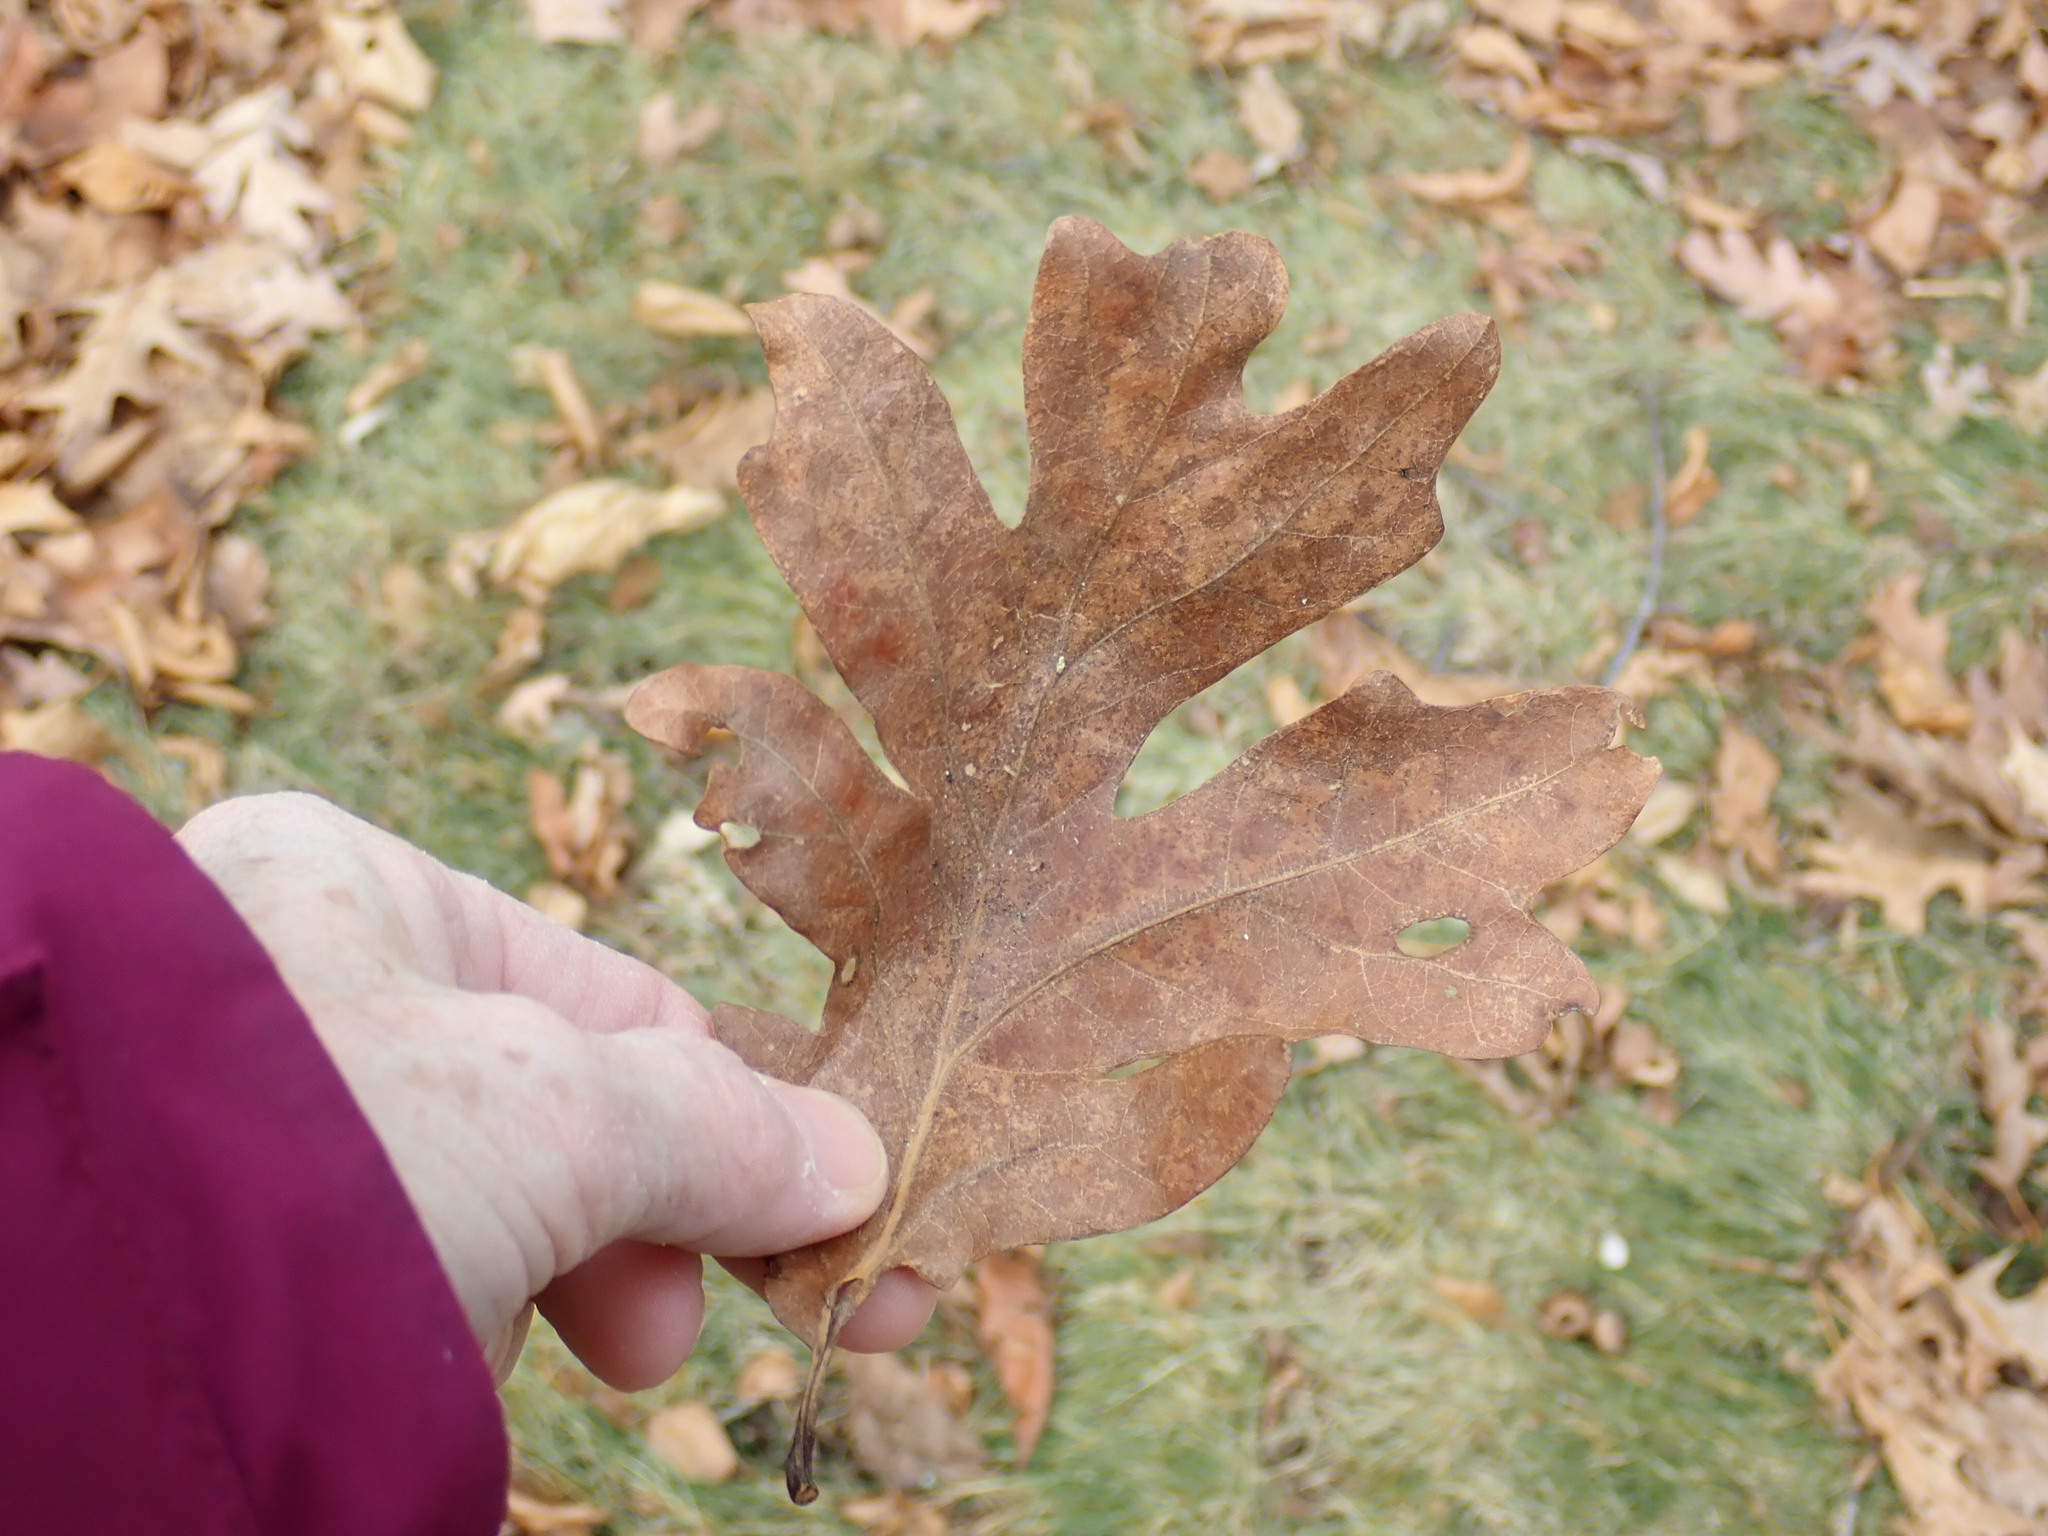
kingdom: Plantae
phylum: Tracheophyta
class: Magnoliopsida
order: Fagales
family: Fagaceae
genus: Quercus
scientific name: Quercus alba
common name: White oak
